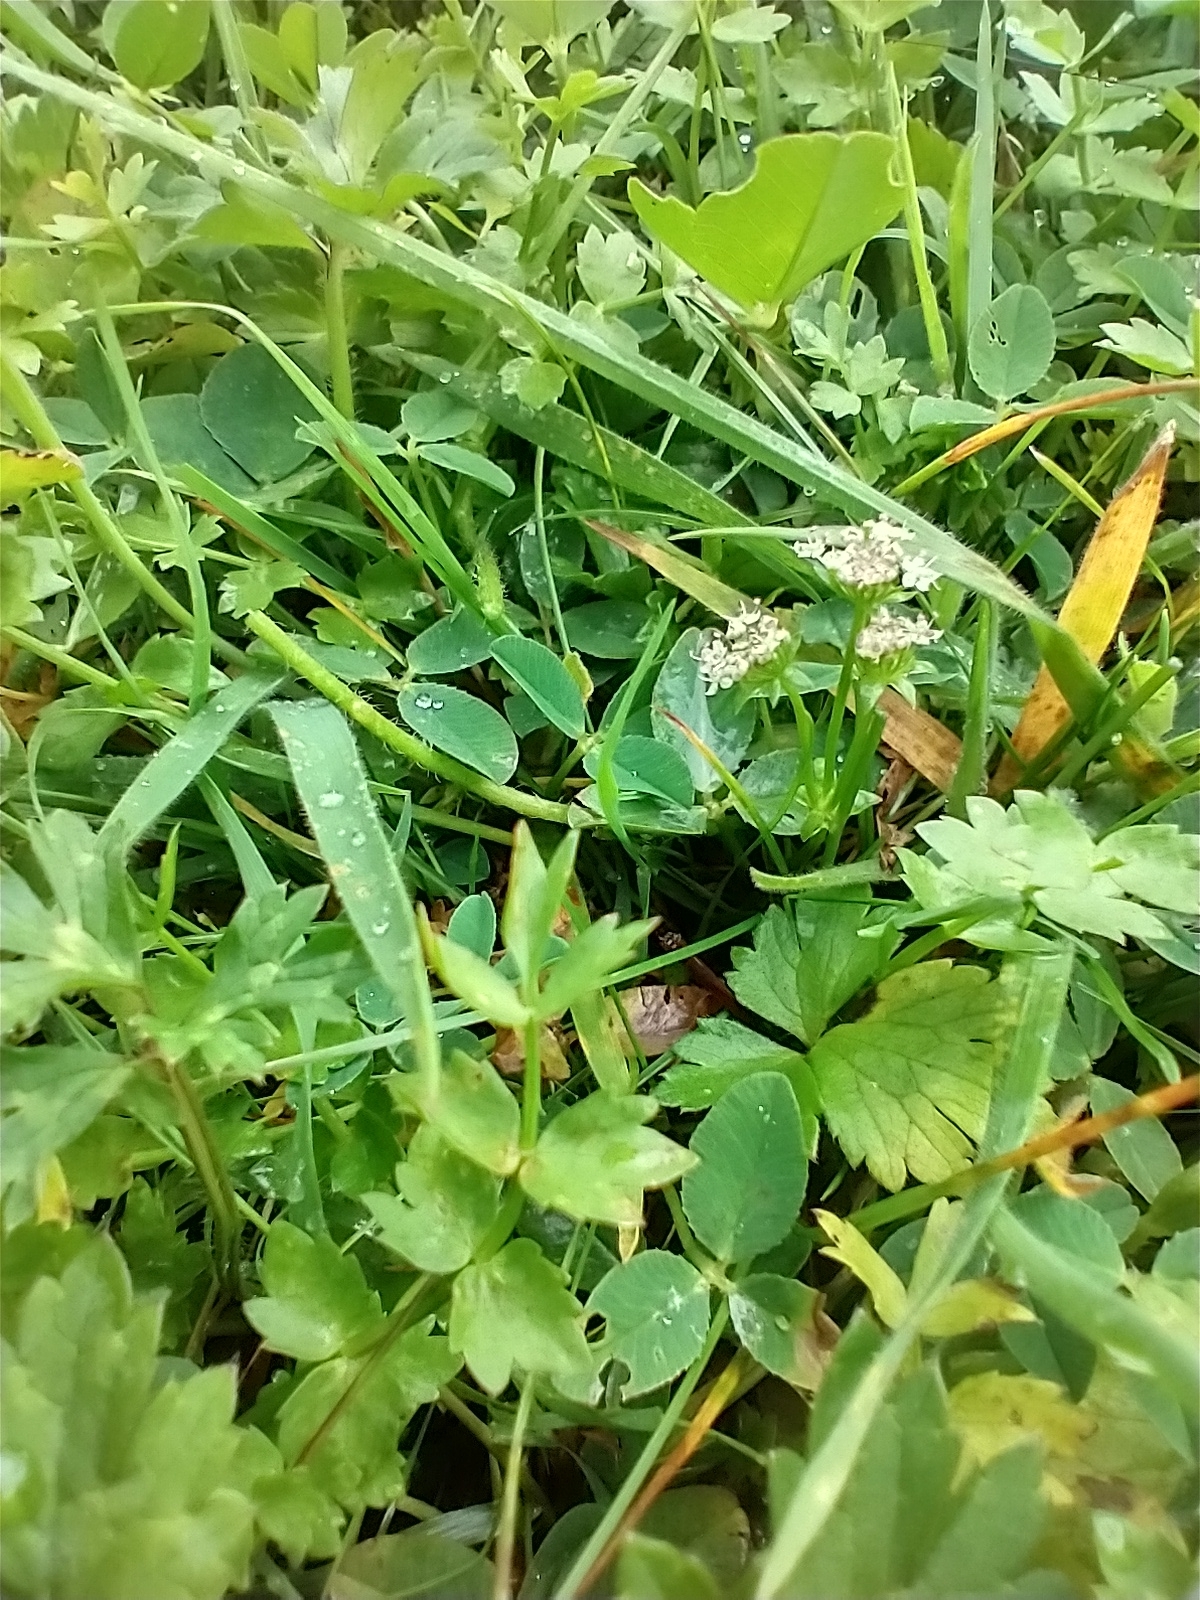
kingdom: Plantae
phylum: Tracheophyta
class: Magnoliopsida
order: Apiales
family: Apiaceae
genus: Helosciadium
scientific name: Helosciadium repens
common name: Creeping marshwort
